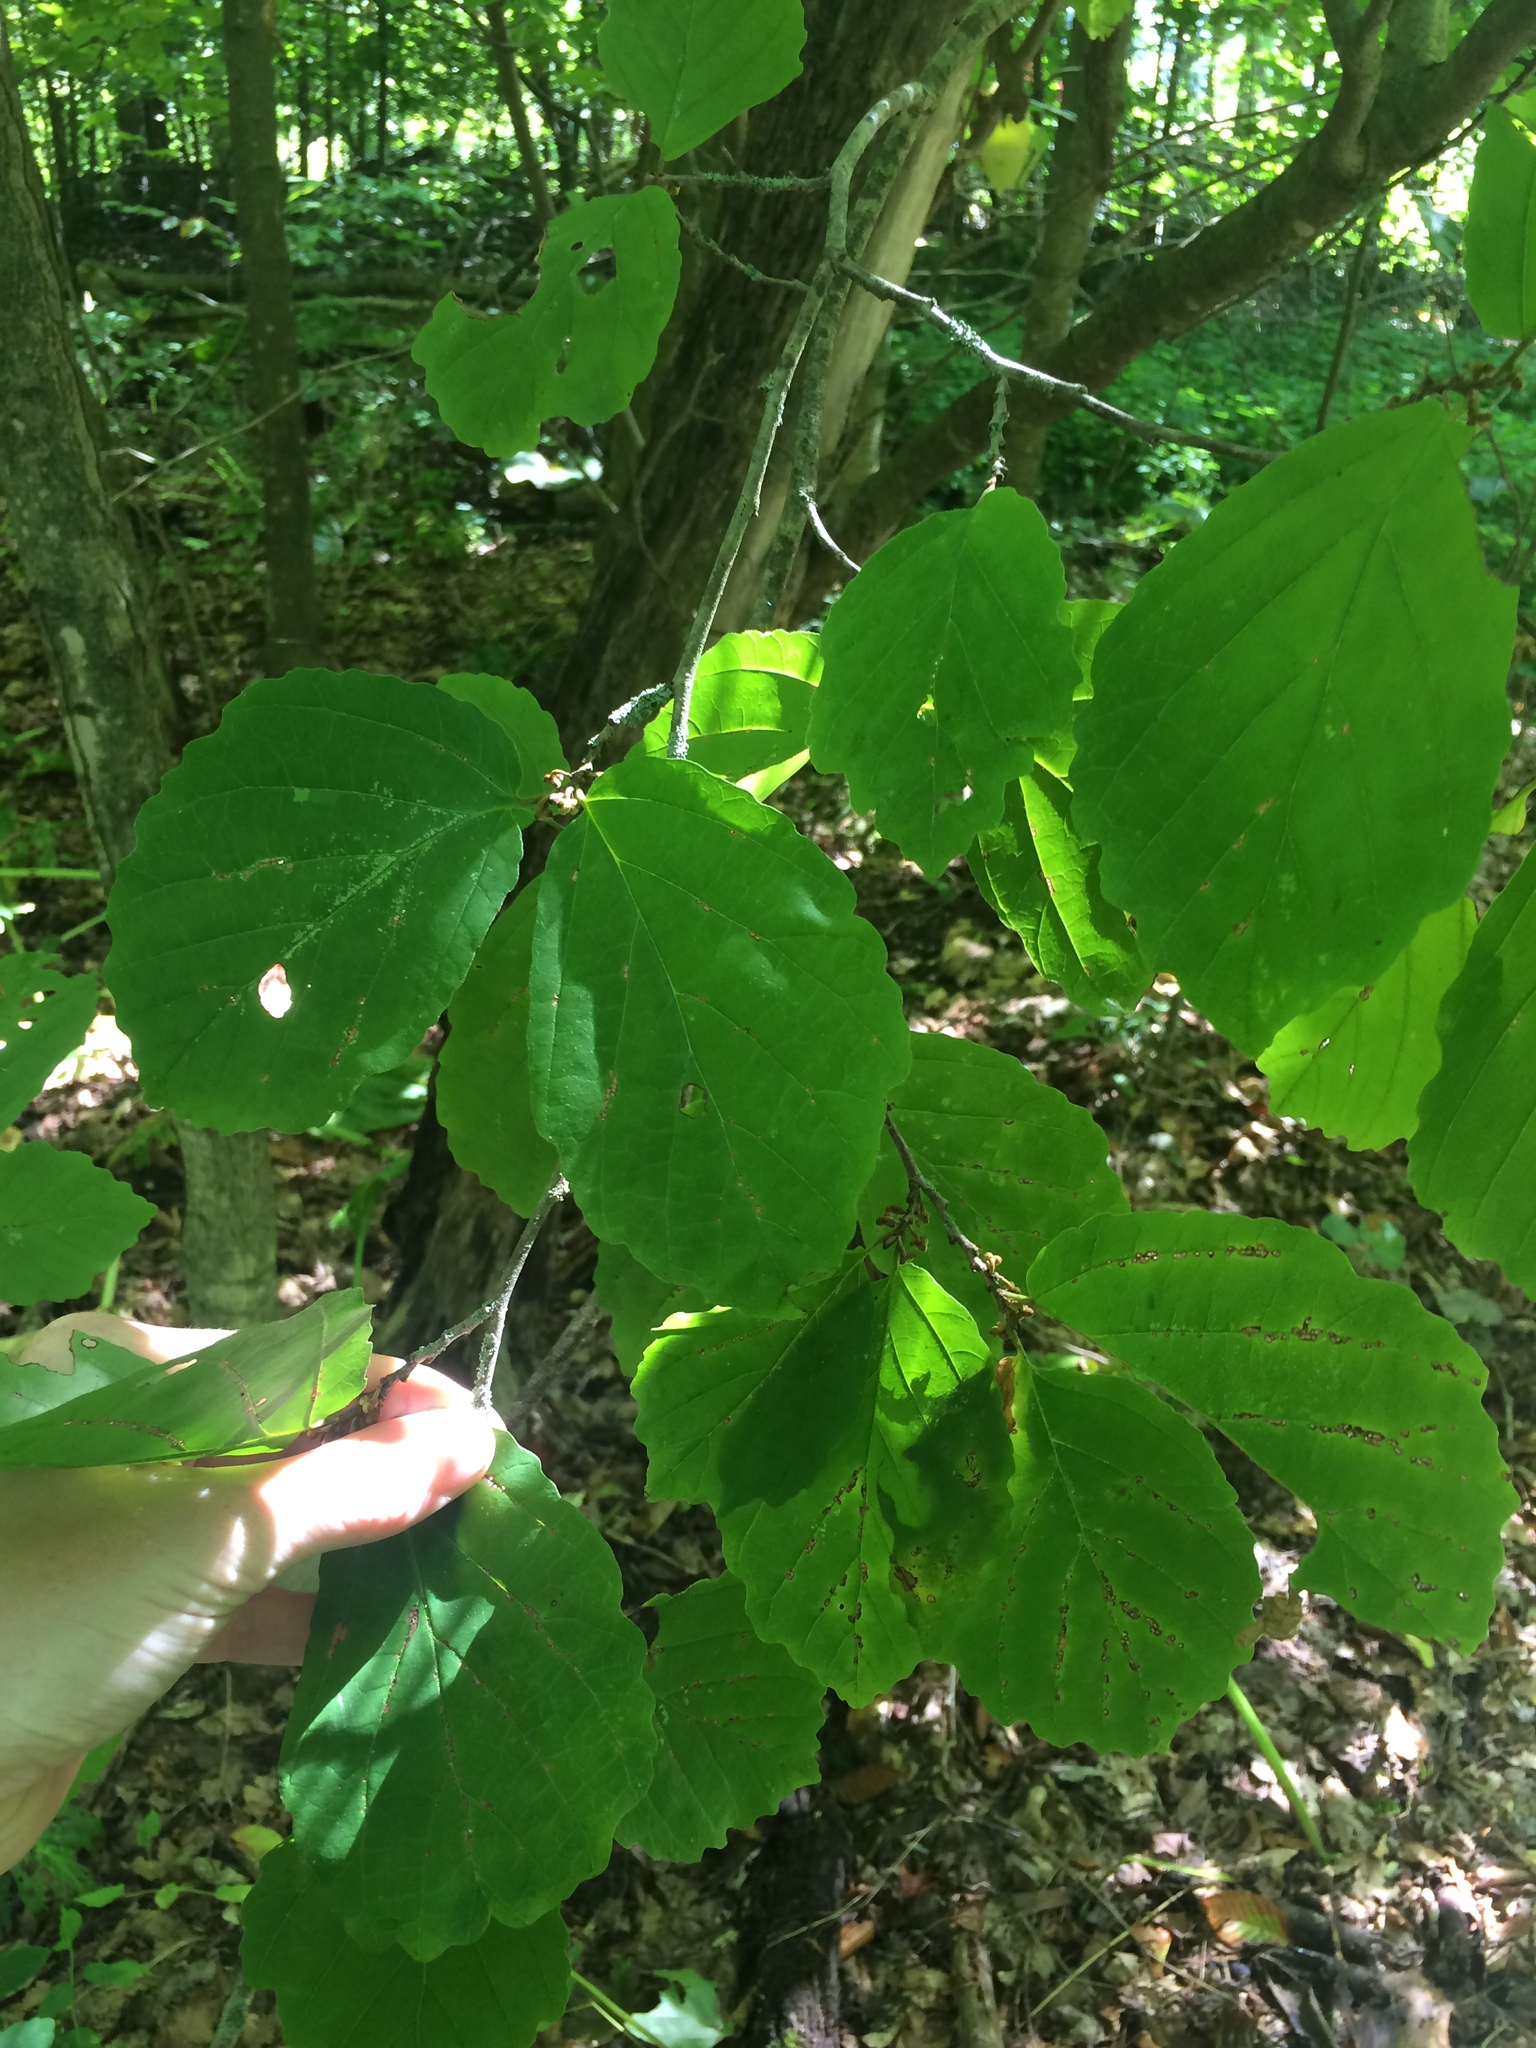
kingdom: Plantae
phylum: Tracheophyta
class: Magnoliopsida
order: Saxifragales
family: Hamamelidaceae
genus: Hamamelis
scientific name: Hamamelis virginiana
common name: Witch-hazel
